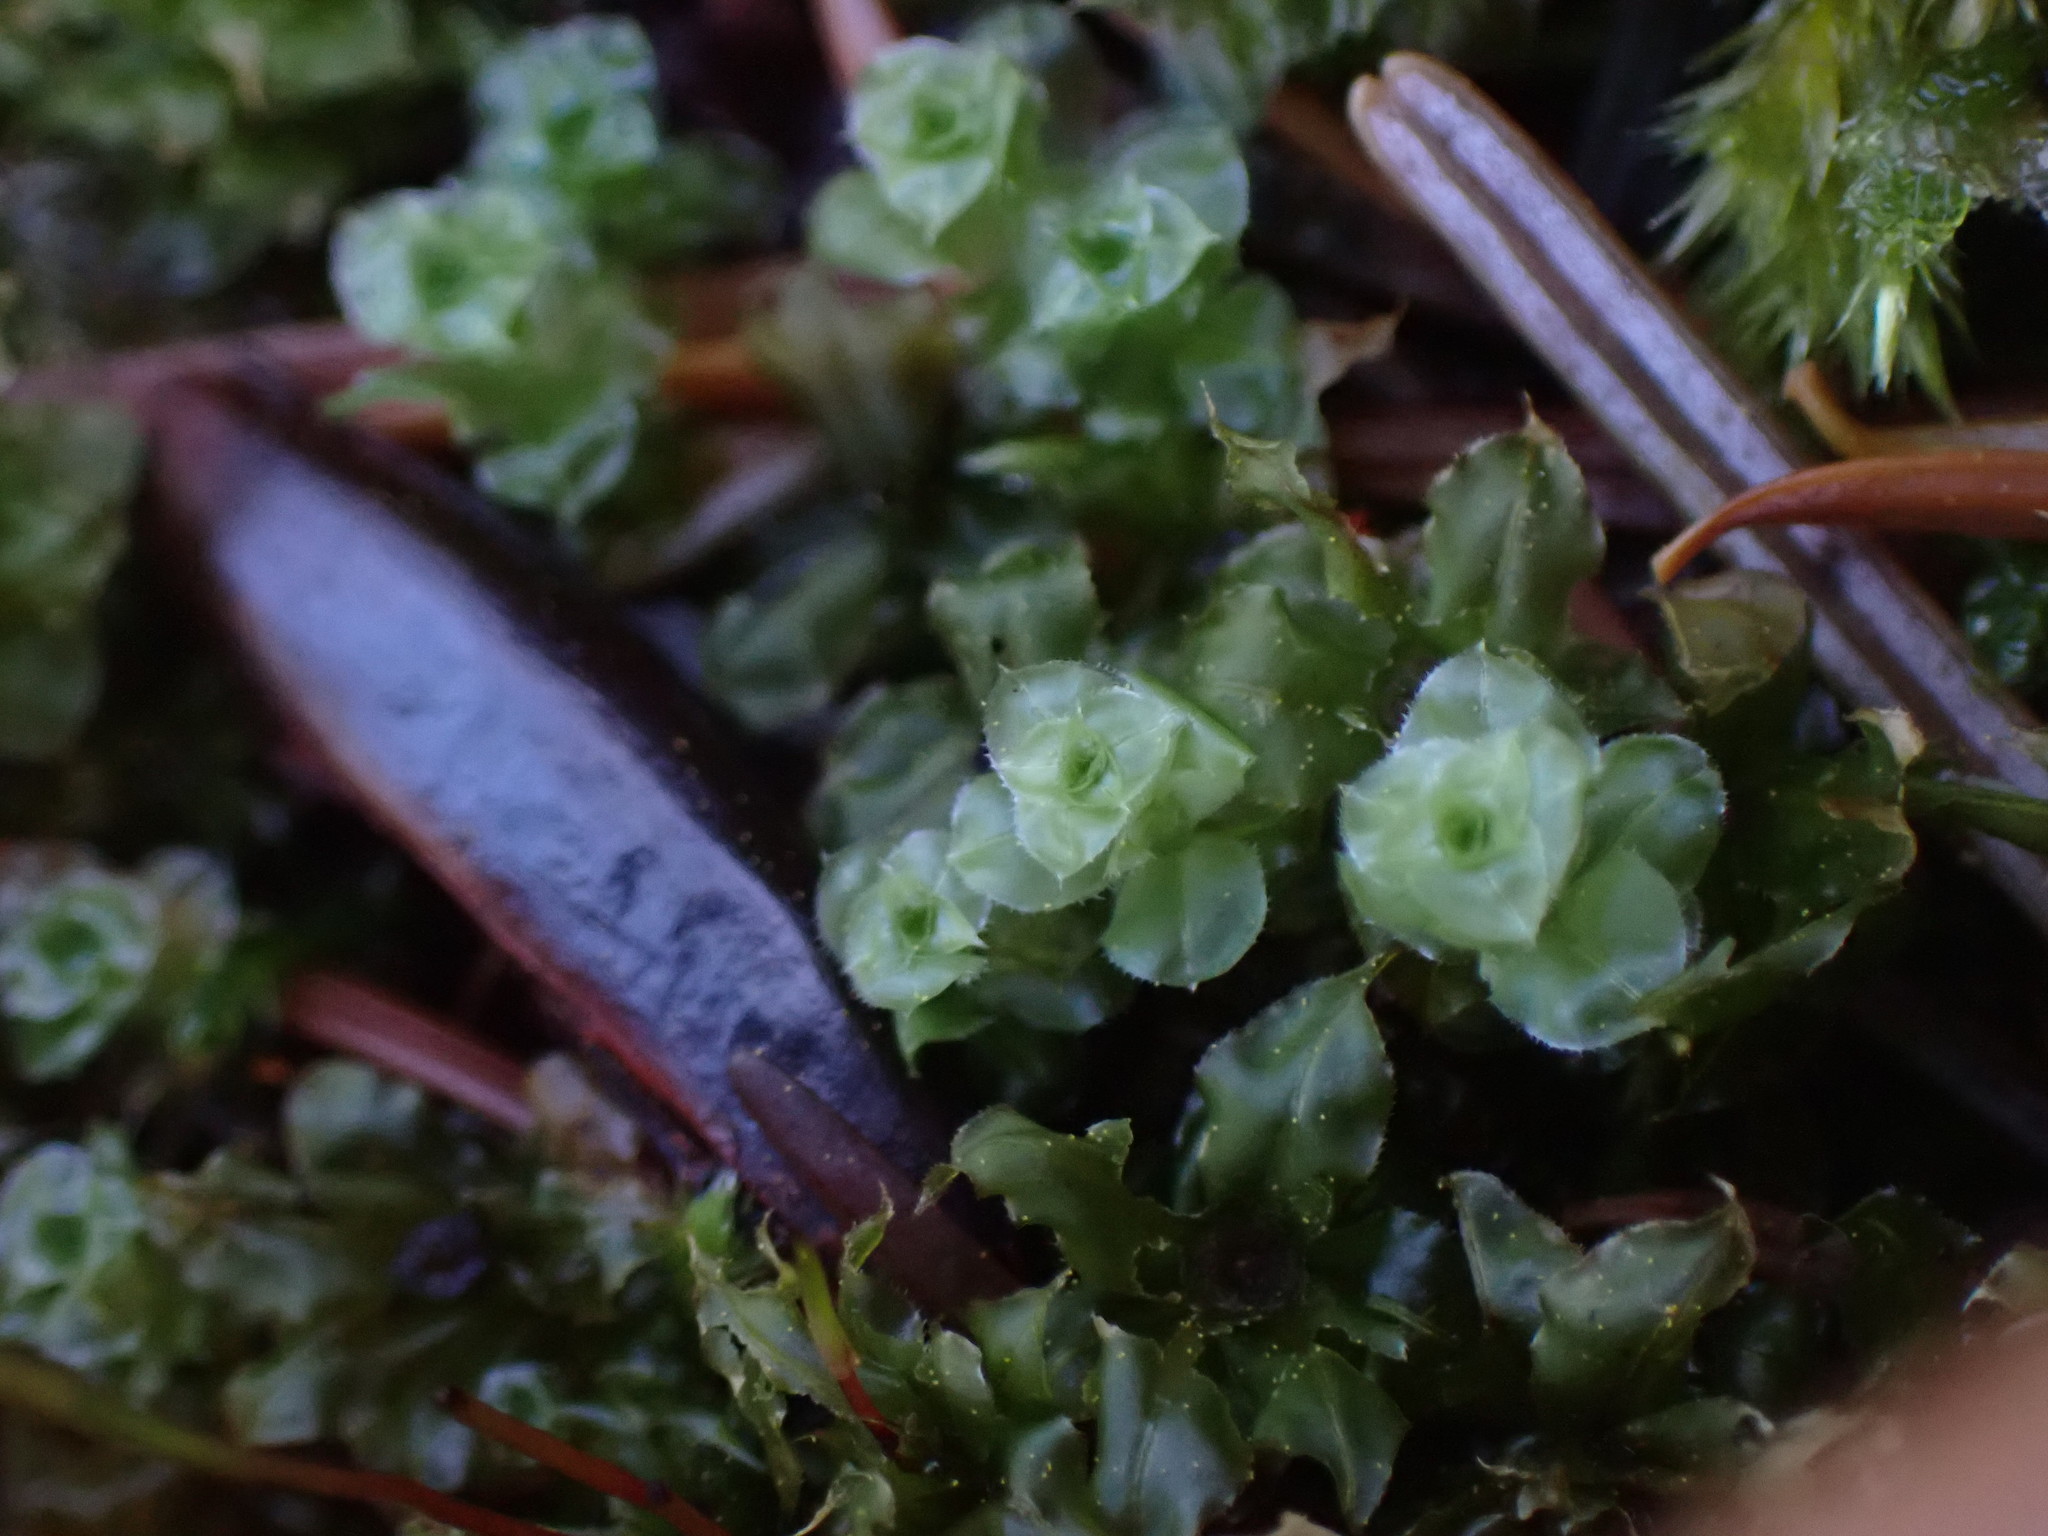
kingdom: Plantae
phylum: Bryophyta
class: Bryopsida
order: Bryales
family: Mniaceae
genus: Plagiomnium
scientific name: Plagiomnium venustum
